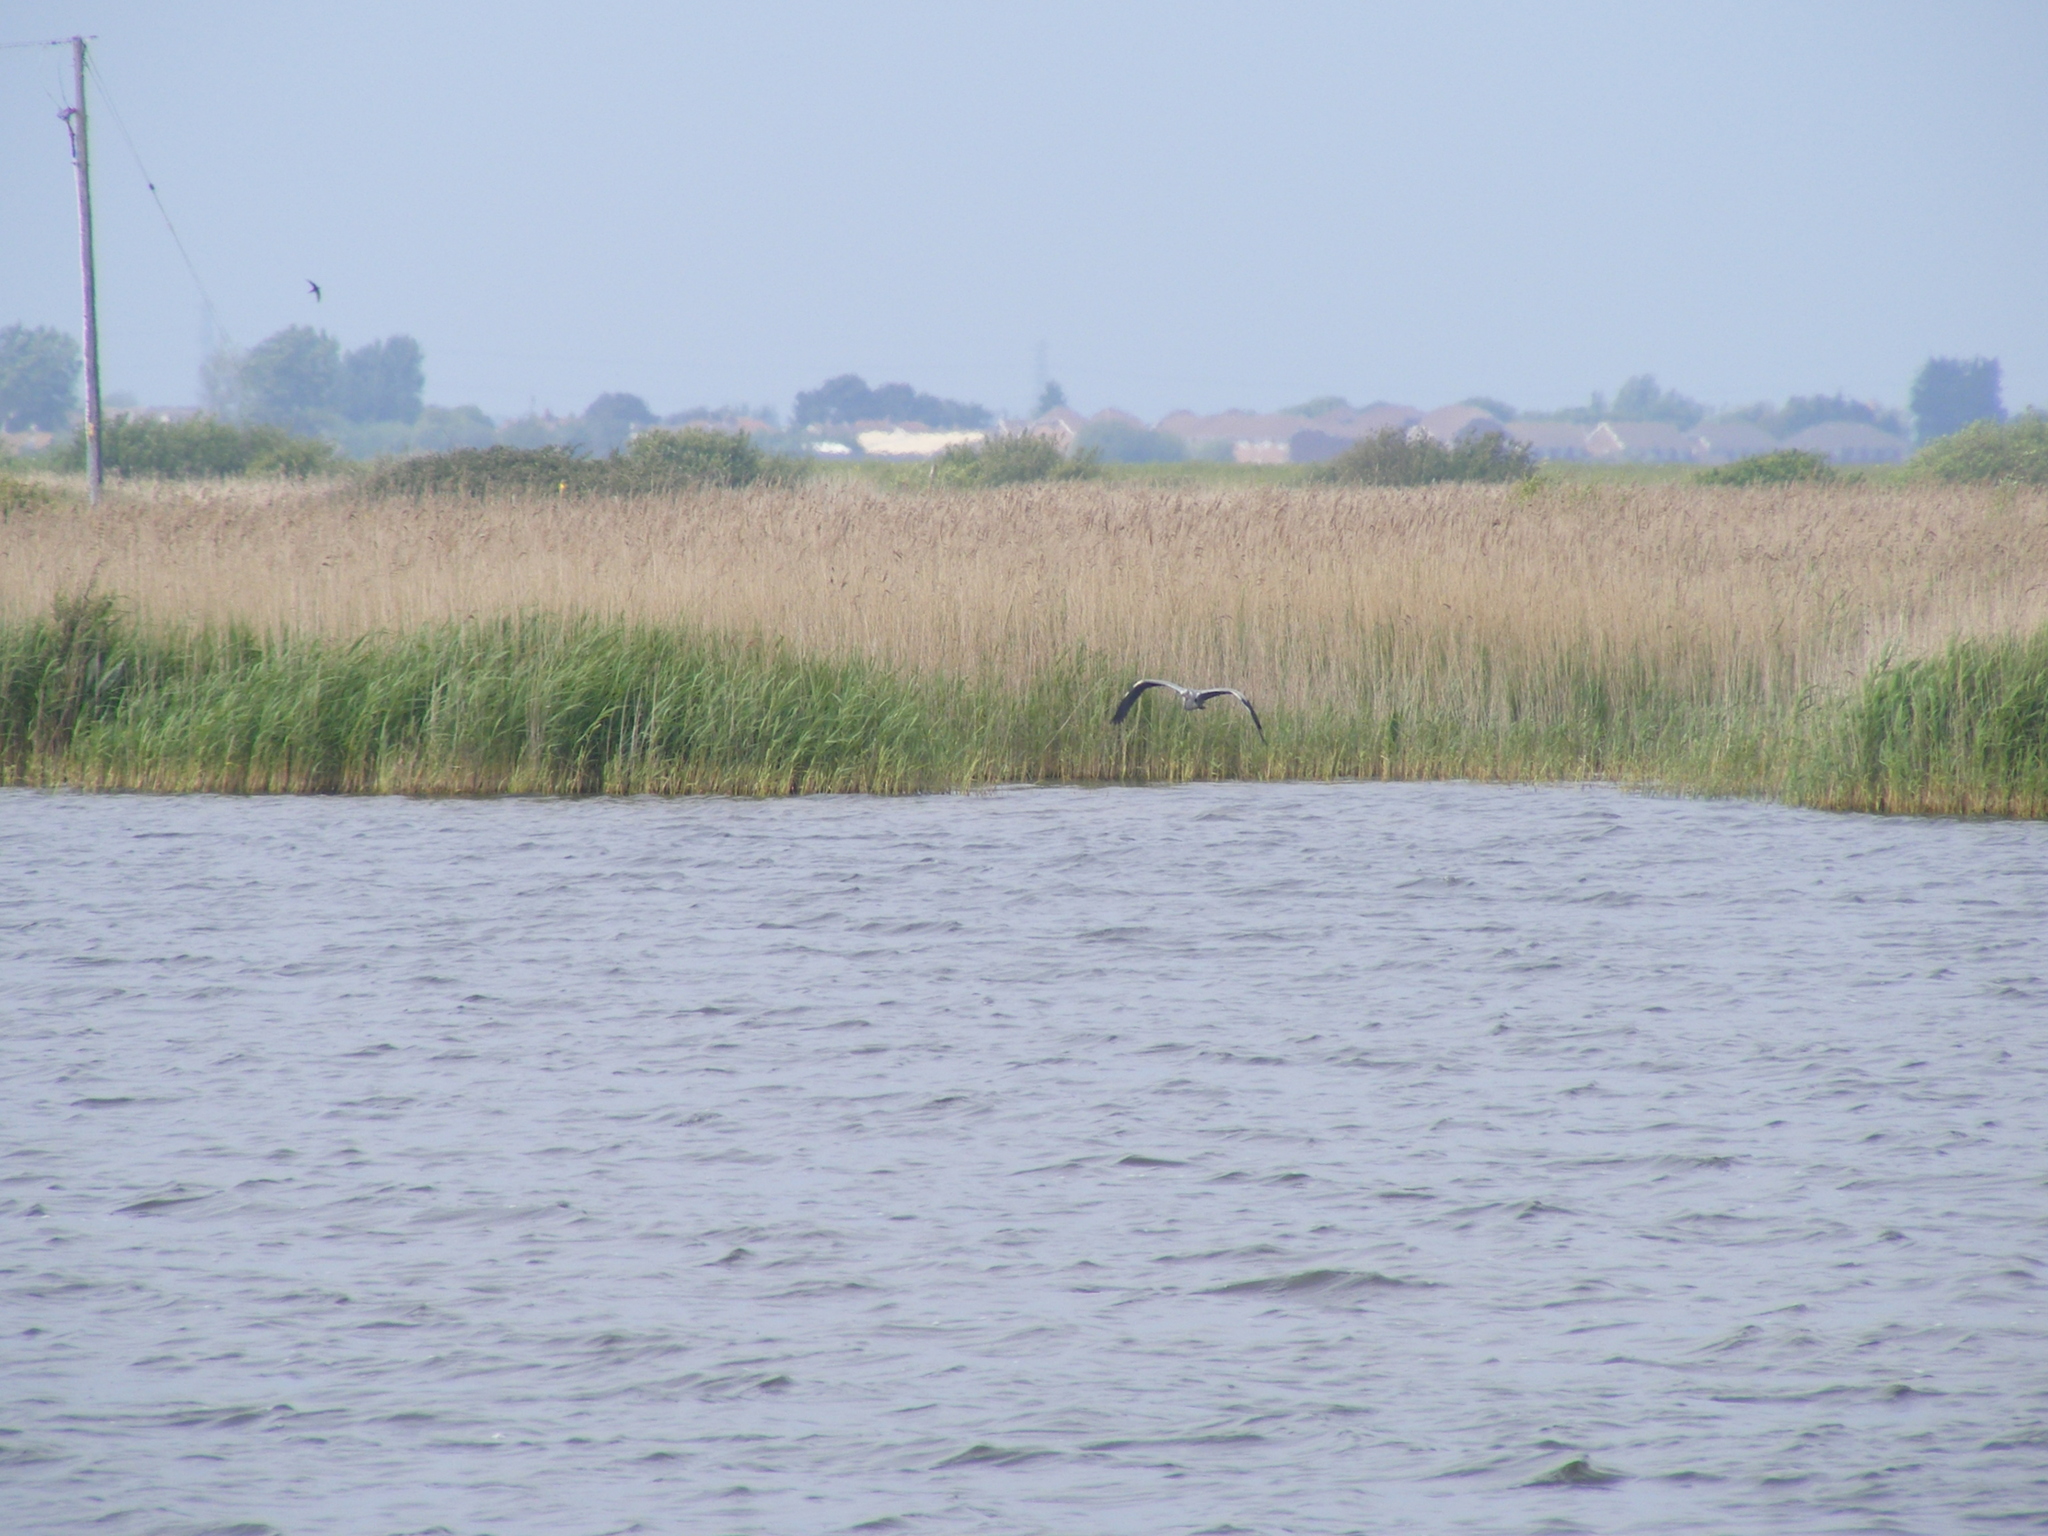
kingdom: Animalia
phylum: Chordata
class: Aves
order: Pelecaniformes
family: Ardeidae
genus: Ardea
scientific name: Ardea cinerea
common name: Grey heron
